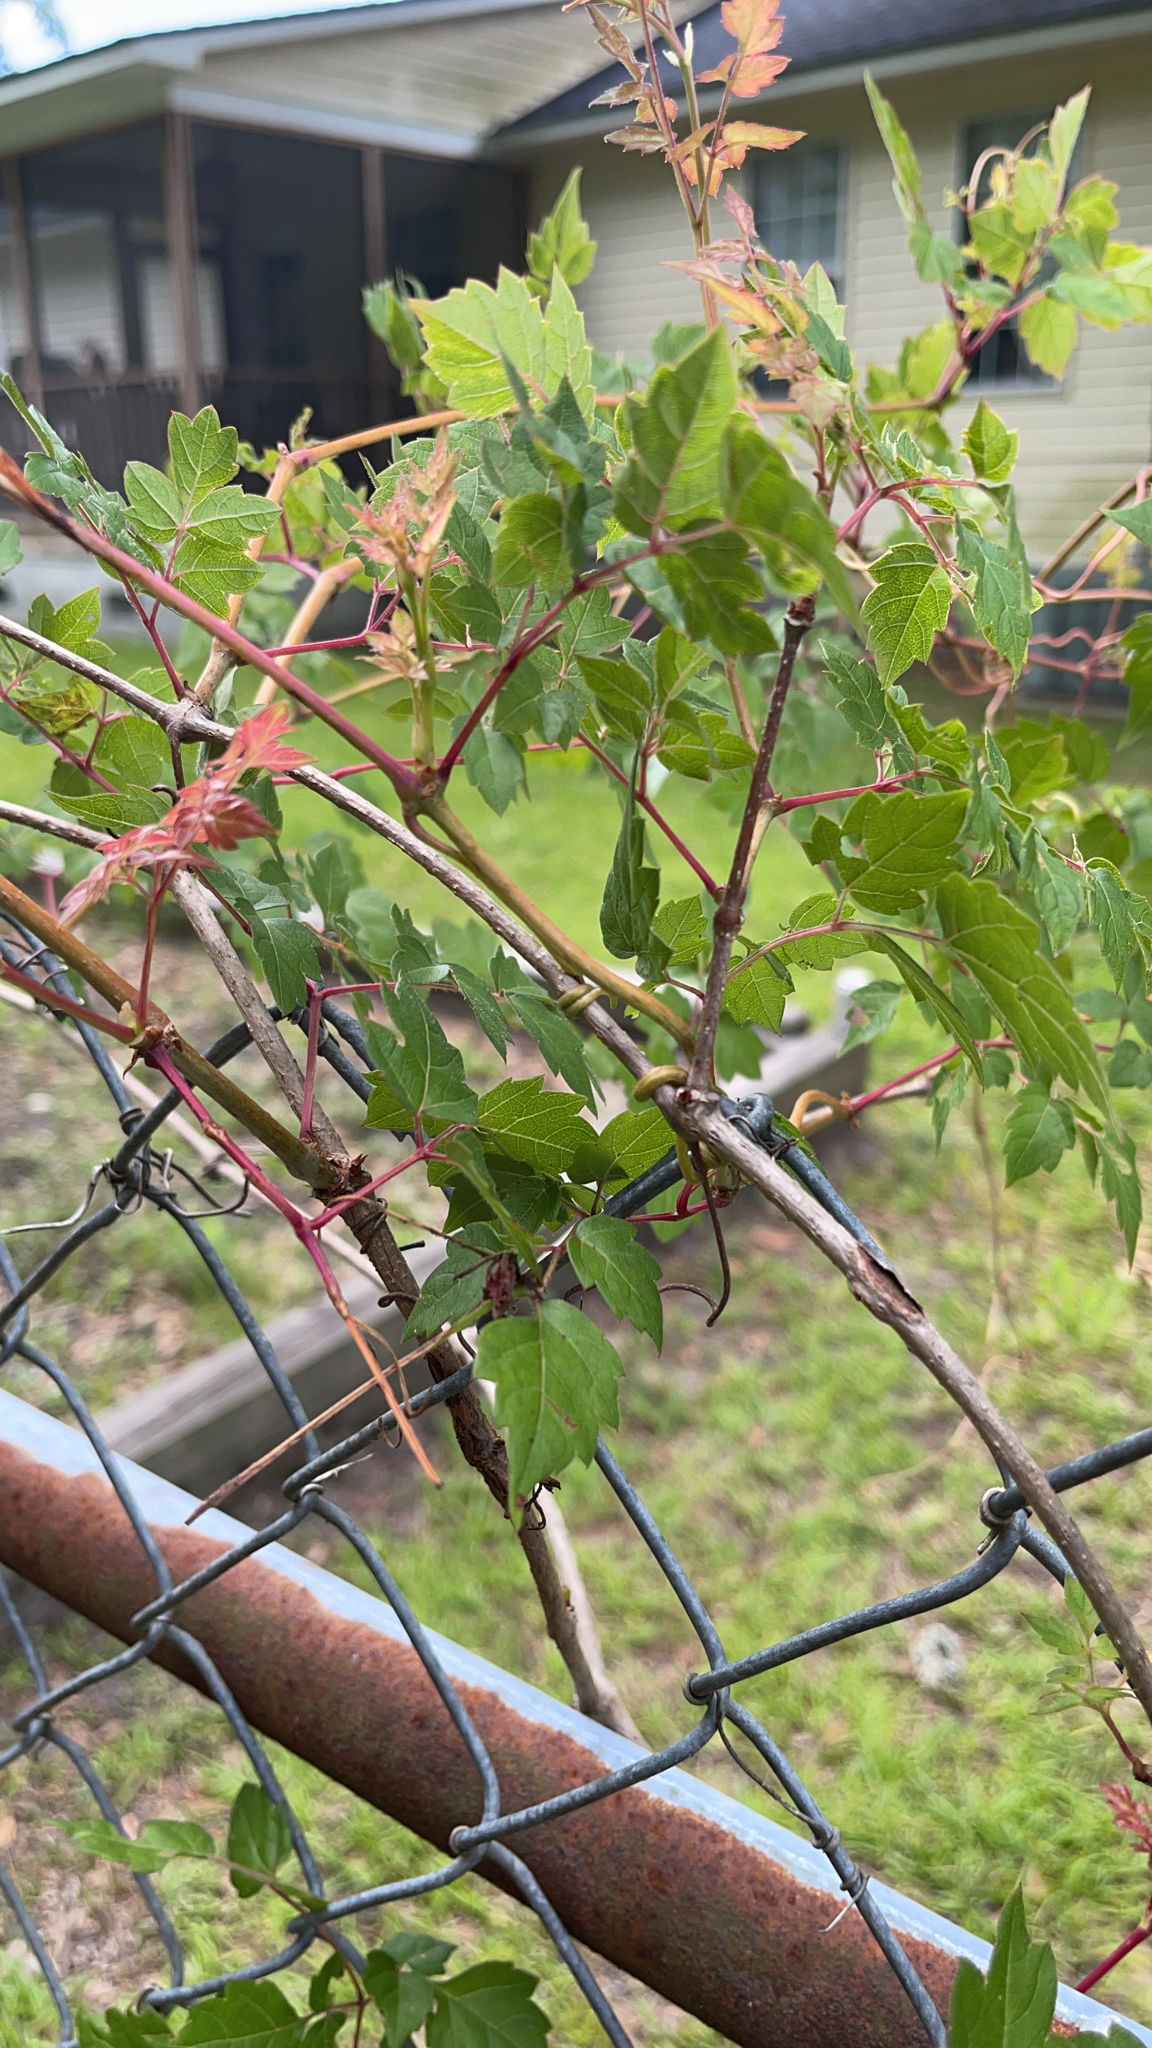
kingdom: Plantae
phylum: Tracheophyta
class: Magnoliopsida
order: Vitales
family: Vitaceae
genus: Nekemias
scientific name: Nekemias arborea
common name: Peppervine
